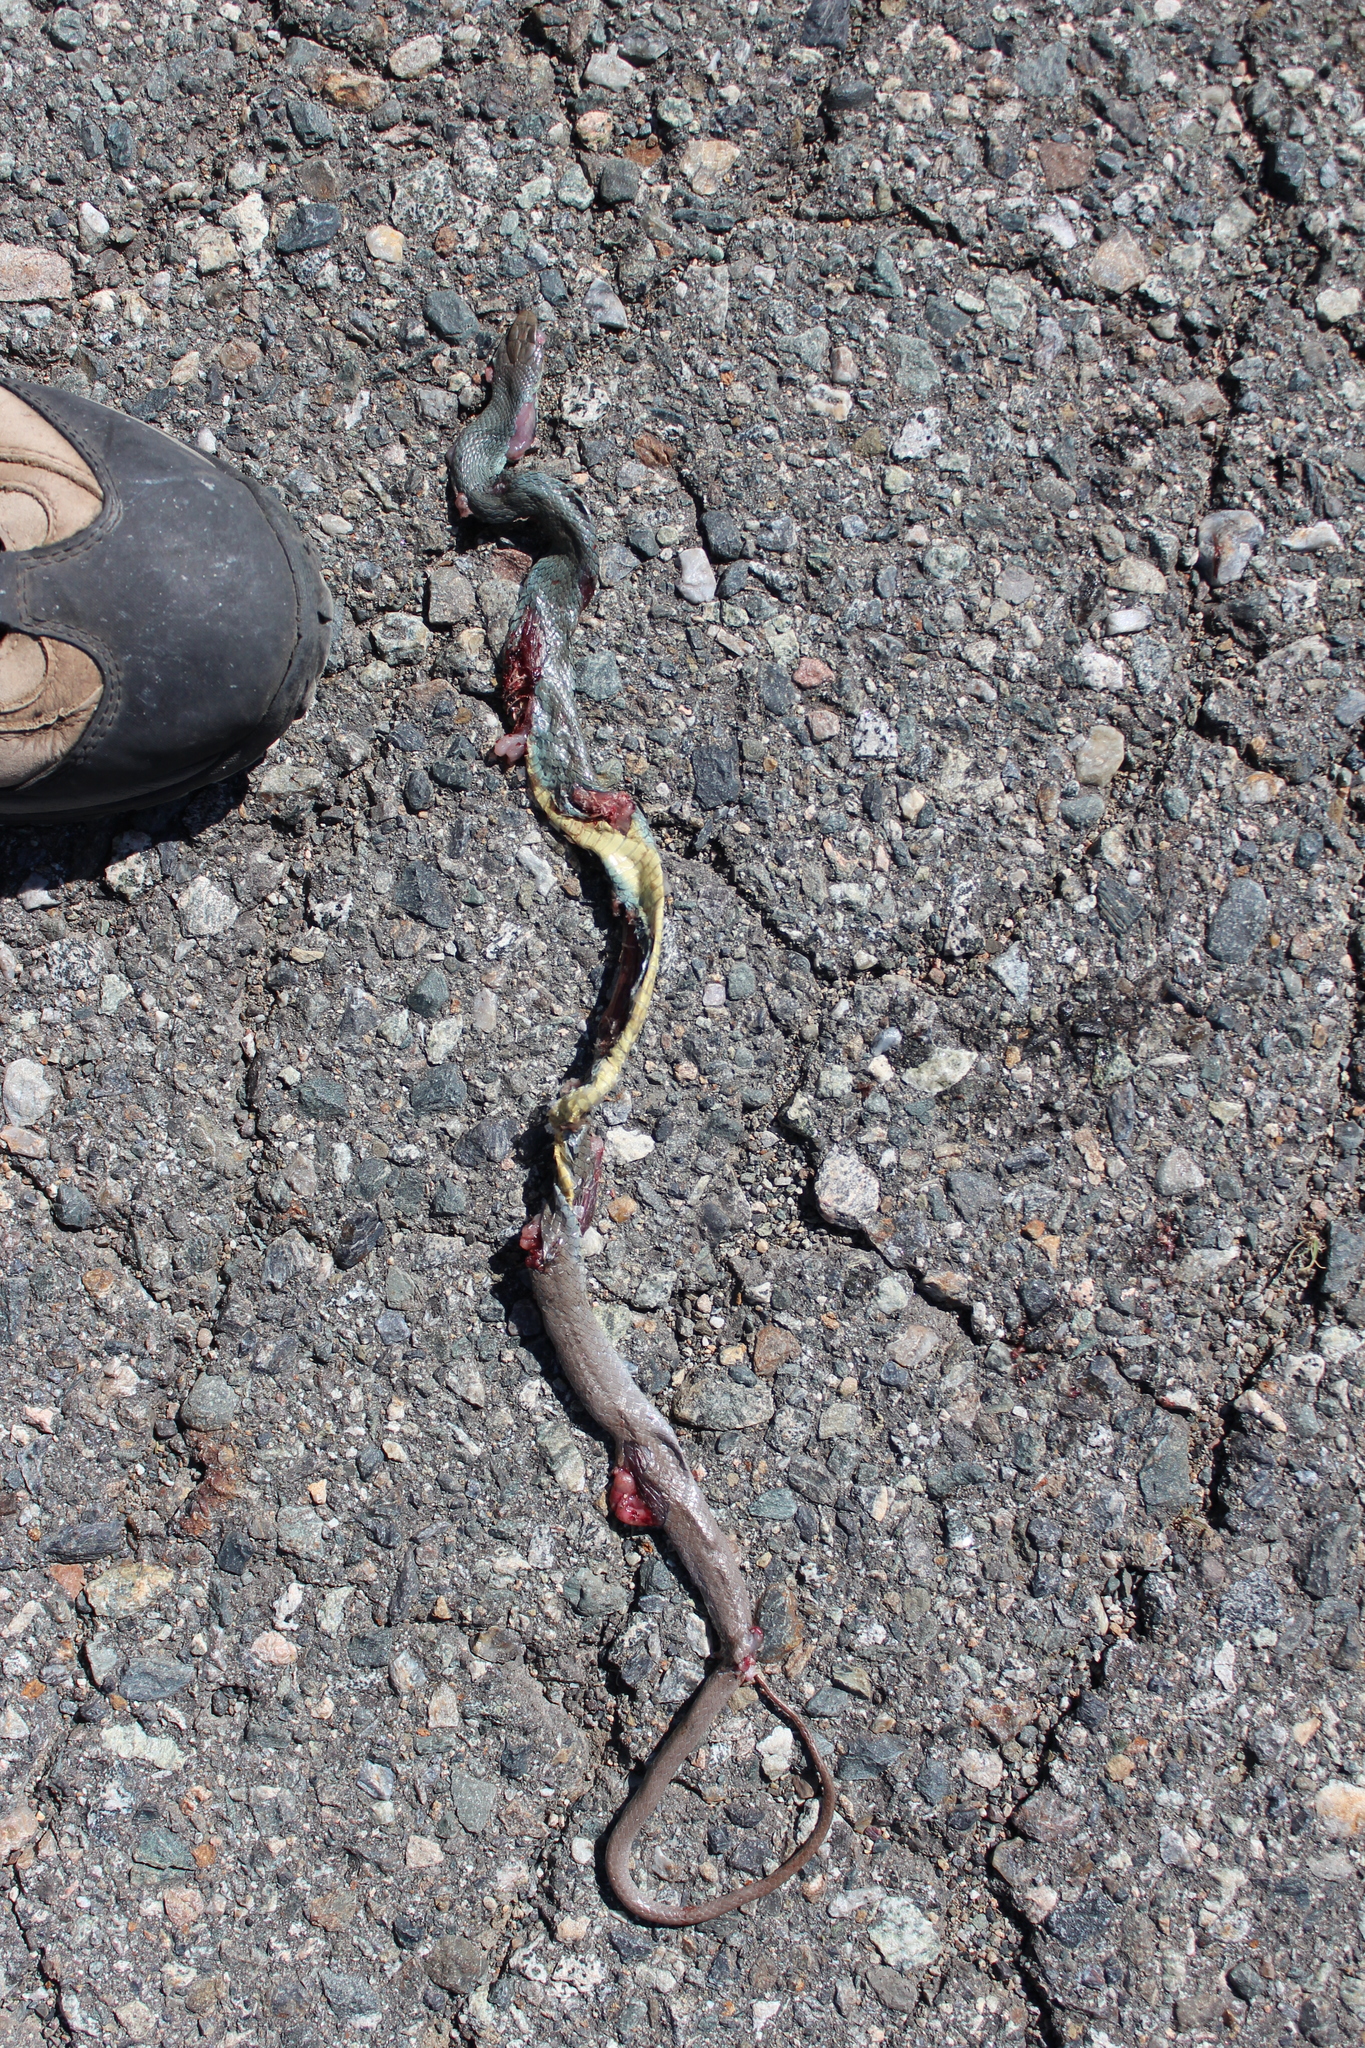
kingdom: Animalia
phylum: Chordata
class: Squamata
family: Colubridae
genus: Coluber
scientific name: Coluber constrictor
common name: Eastern racer
